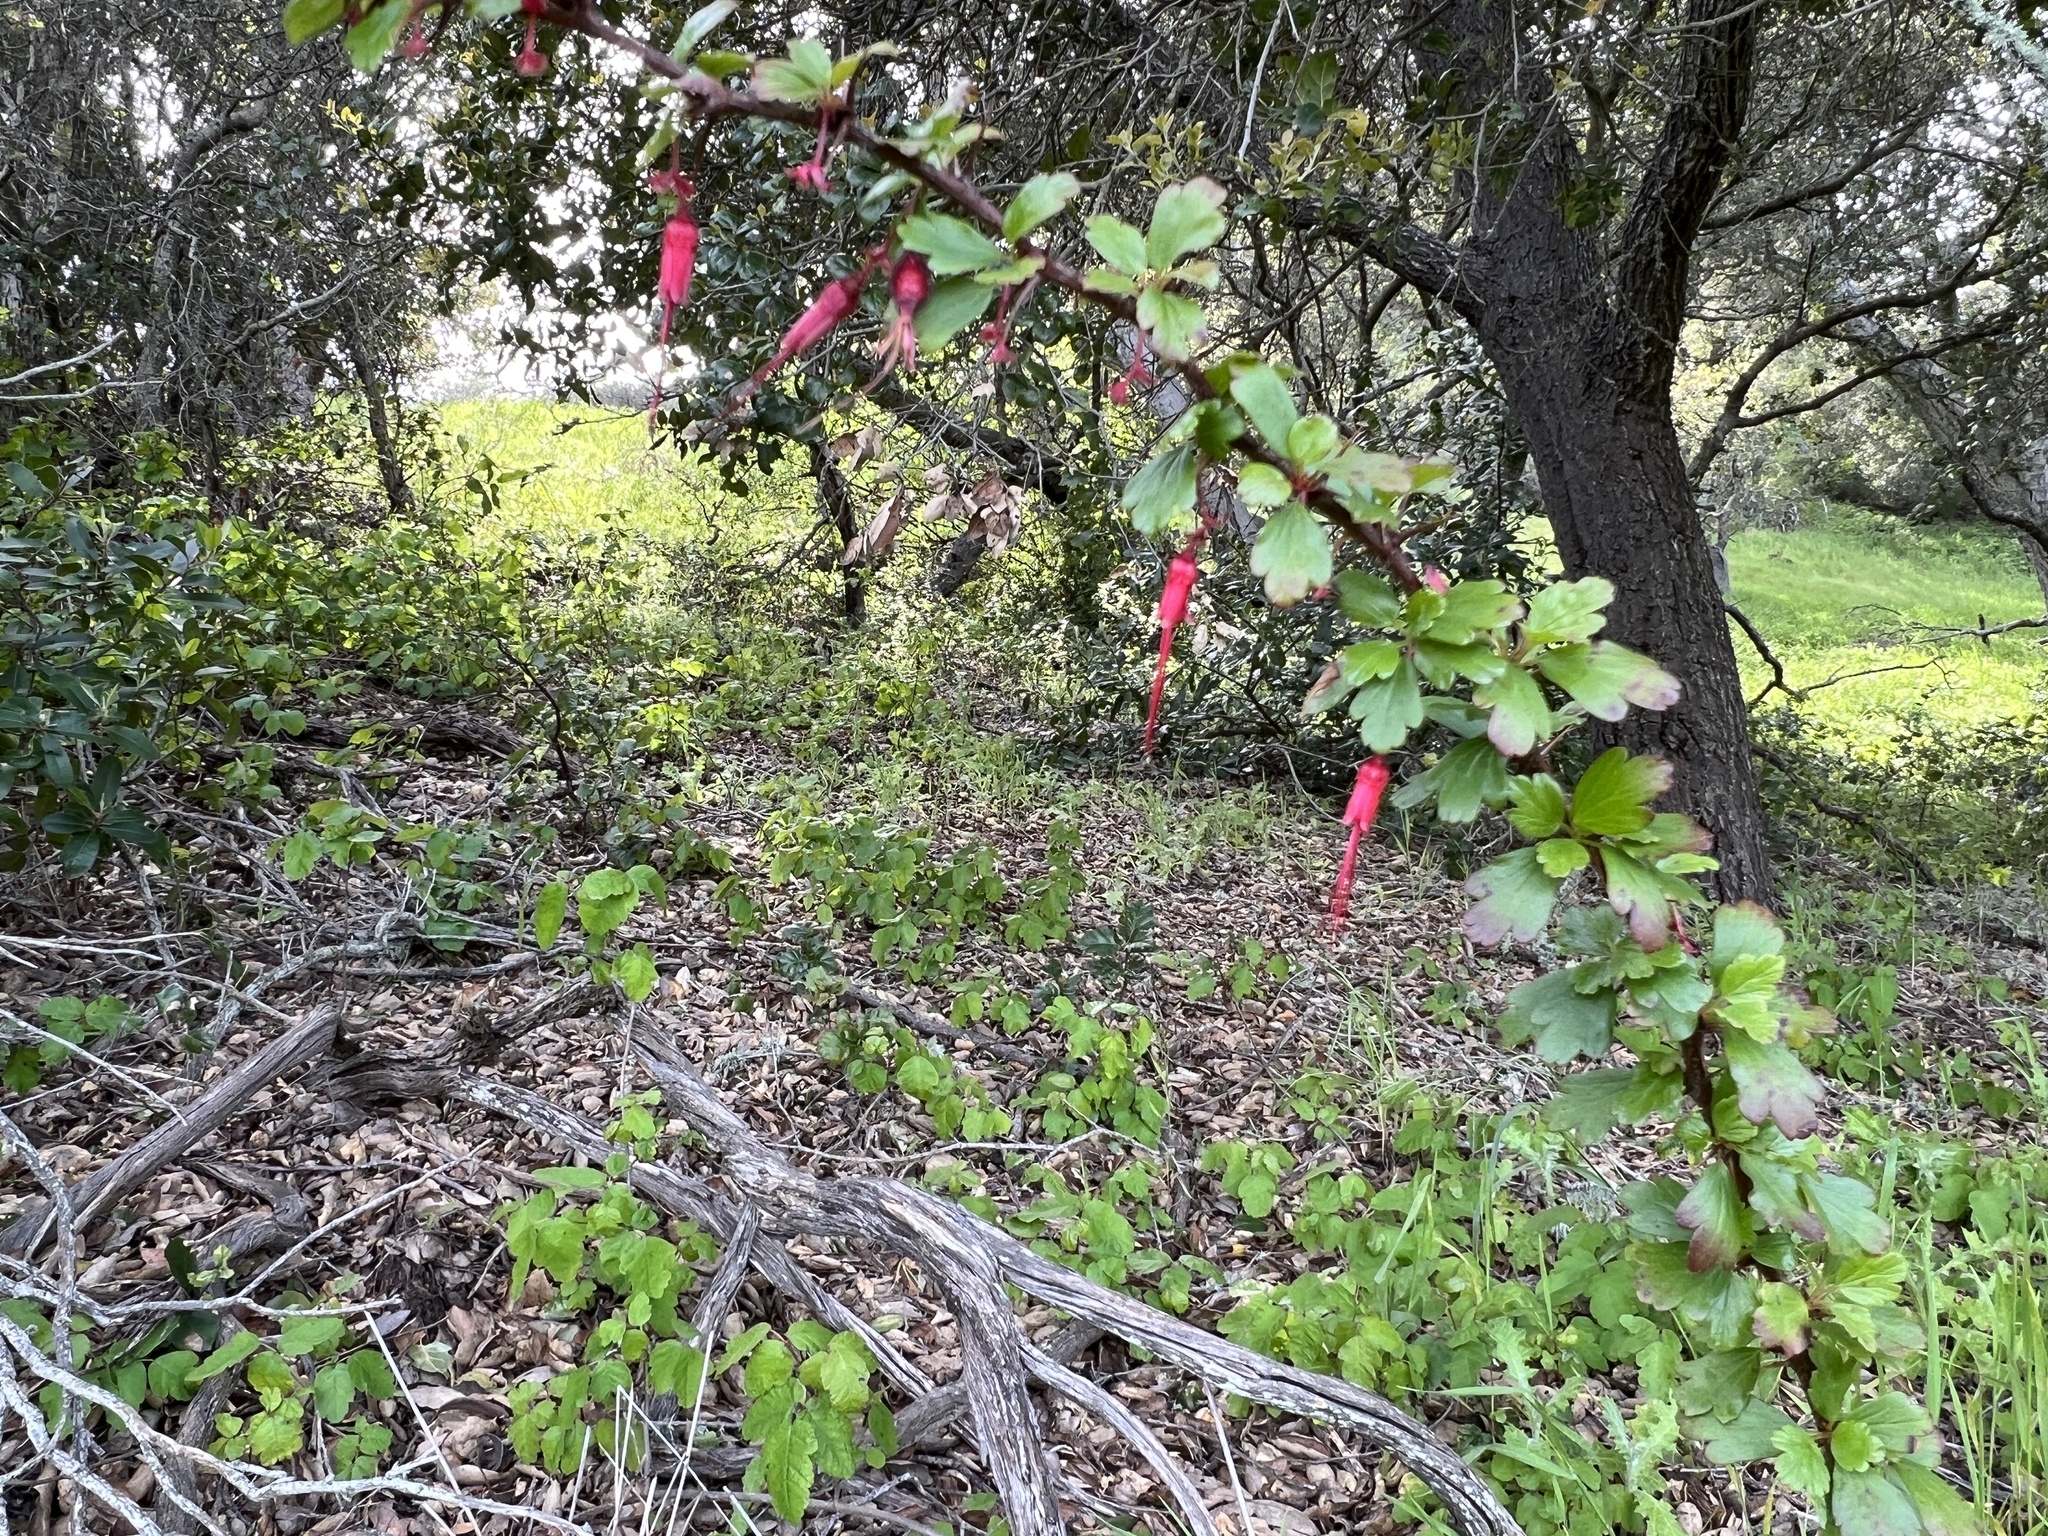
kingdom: Plantae
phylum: Tracheophyta
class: Magnoliopsida
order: Saxifragales
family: Grossulariaceae
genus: Ribes
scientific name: Ribes speciosum
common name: Fuchsia-flower gooseberry
